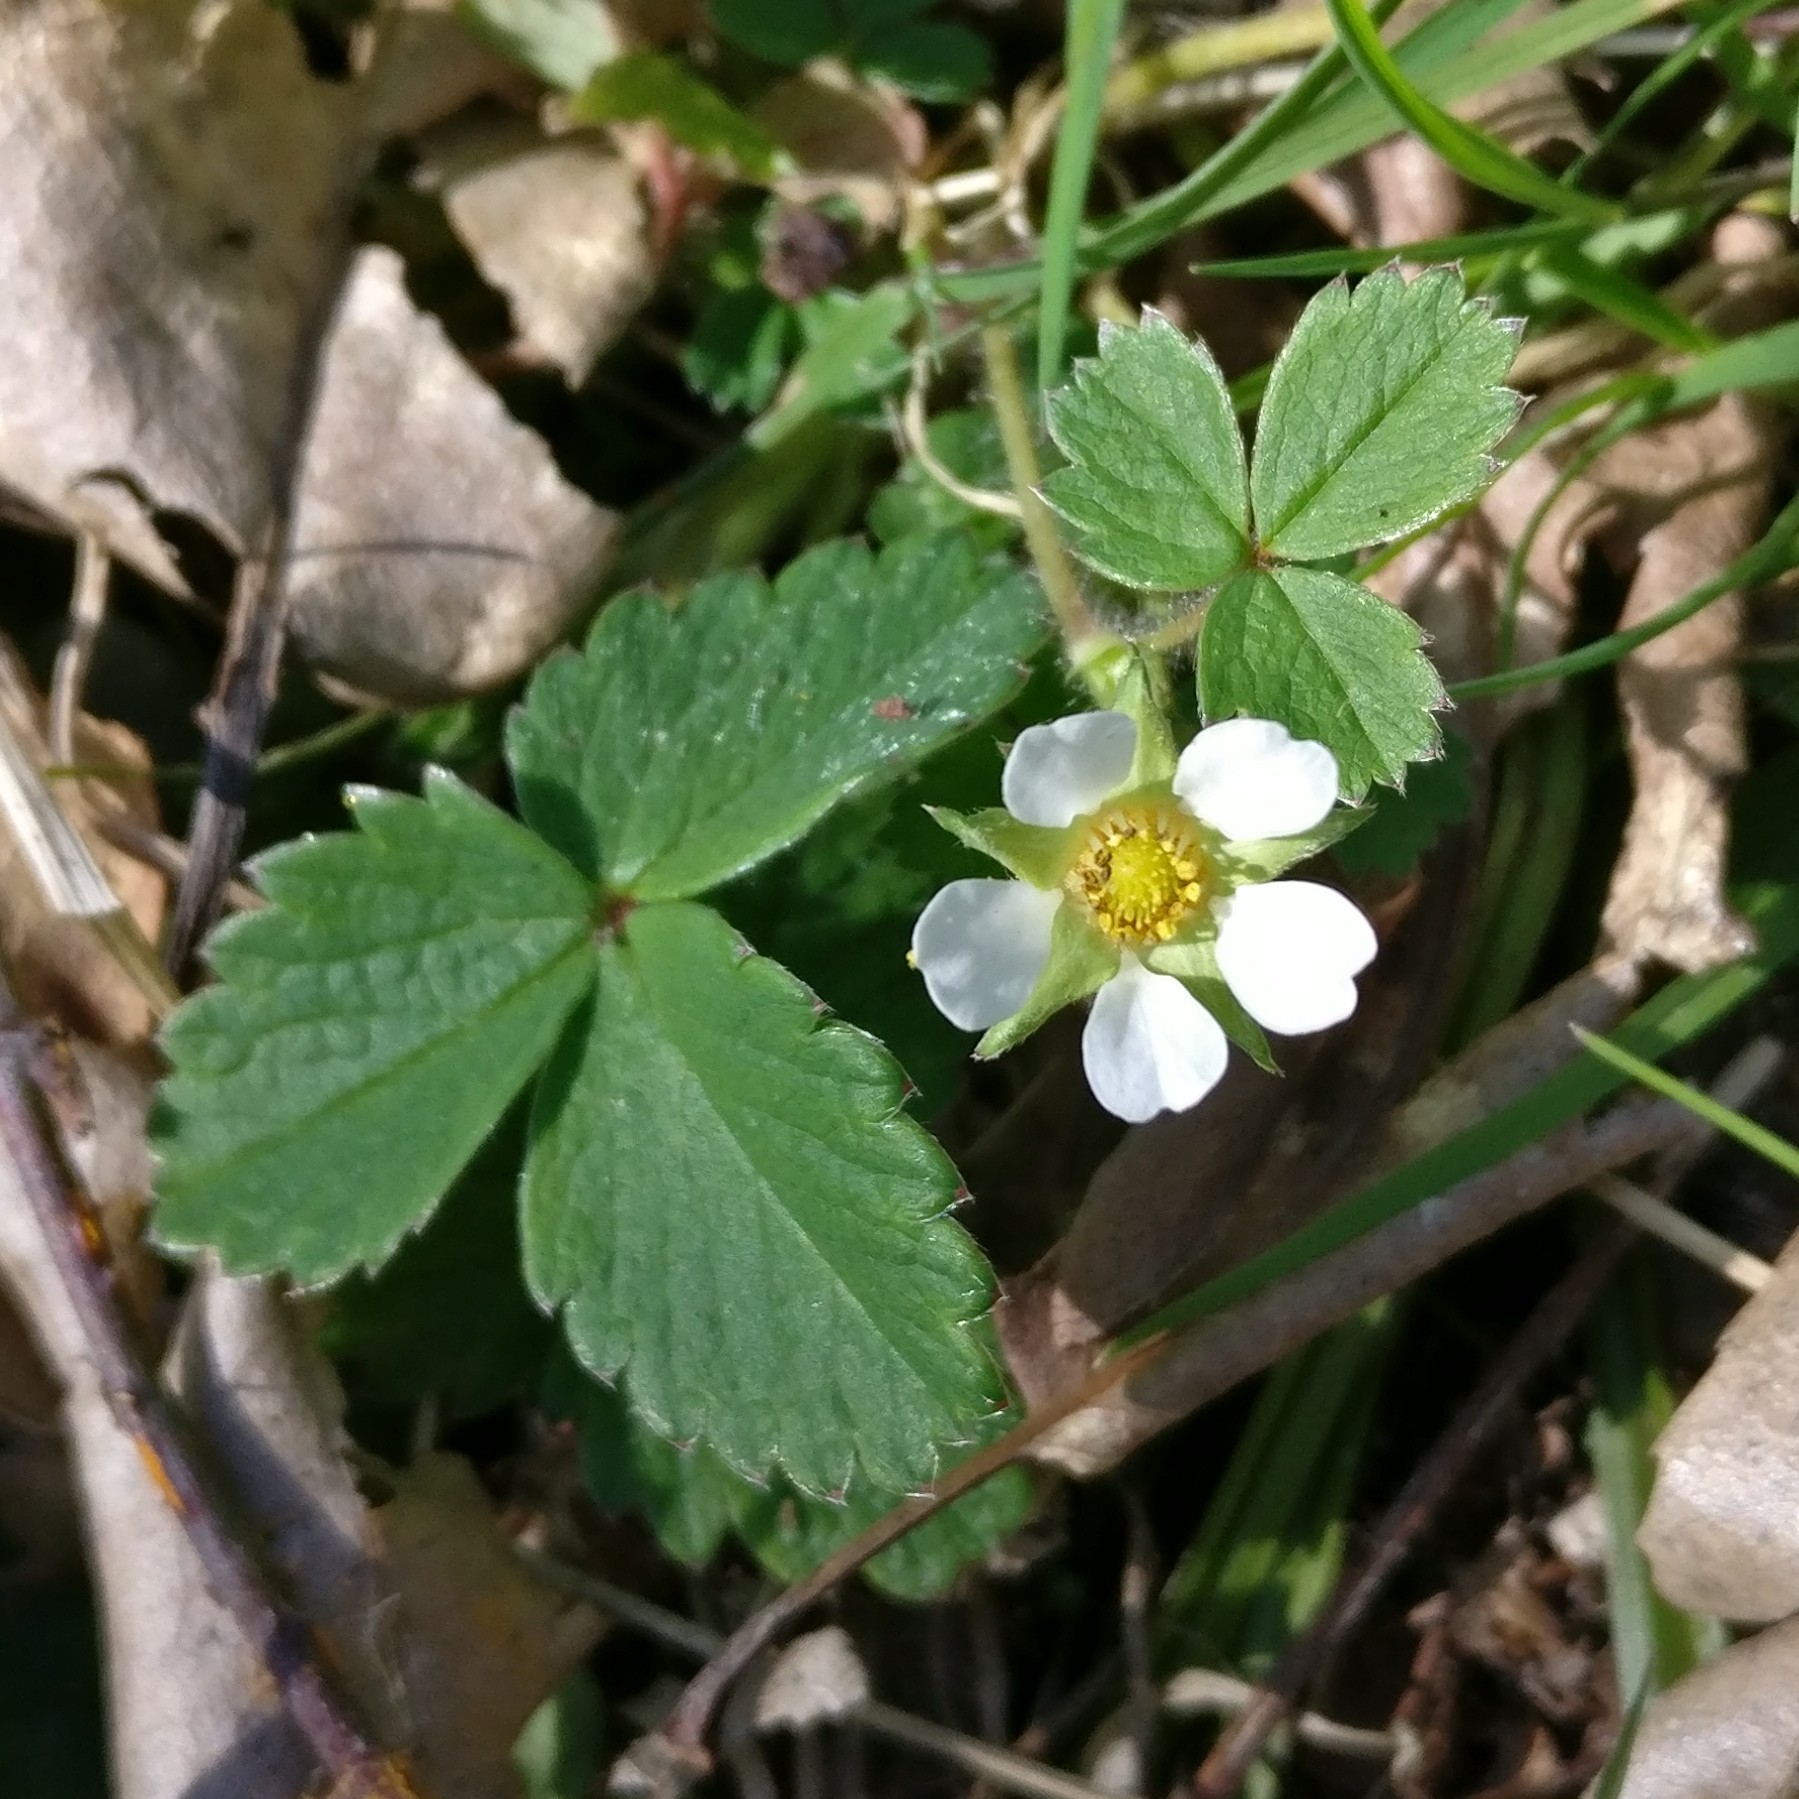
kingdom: Plantae
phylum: Tracheophyta
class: Magnoliopsida
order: Rosales
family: Rosaceae
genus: Potentilla
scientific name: Potentilla sterilis
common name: Barren strawberry
